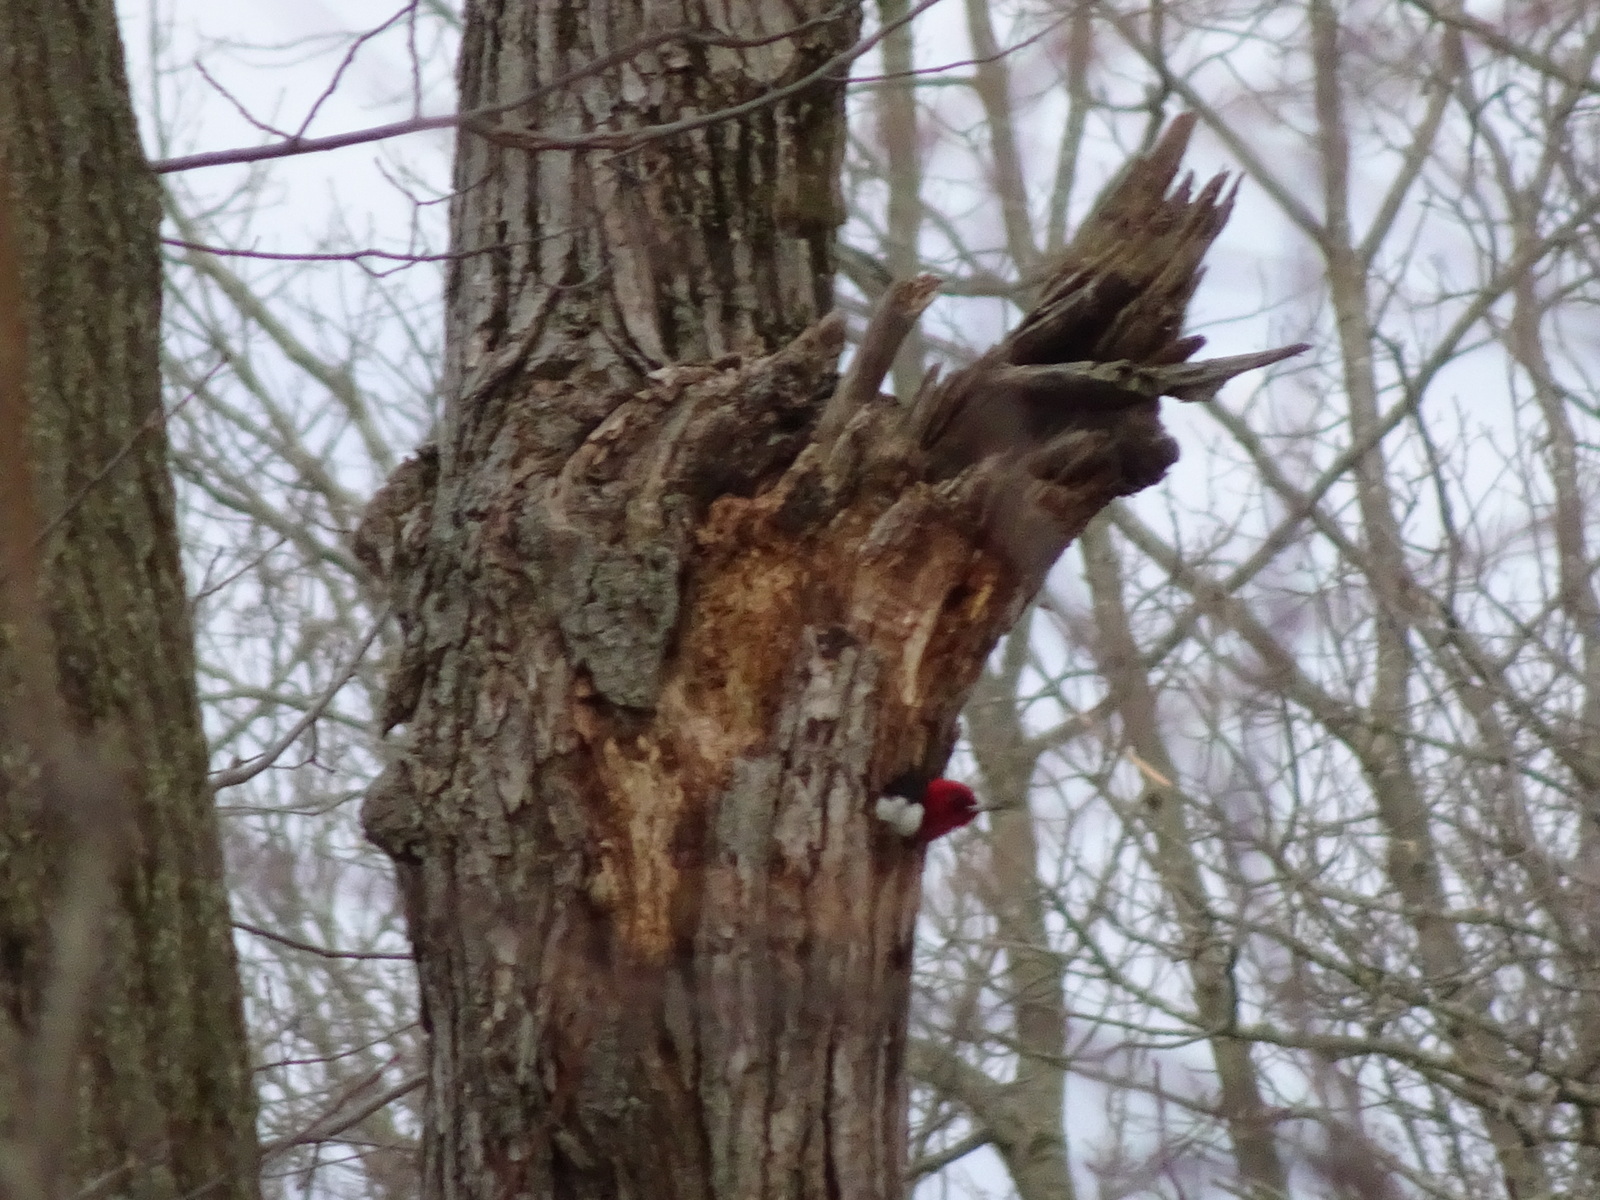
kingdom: Animalia
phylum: Chordata
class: Aves
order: Piciformes
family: Picidae
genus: Melanerpes
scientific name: Melanerpes erythrocephalus
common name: Red-headed woodpecker
